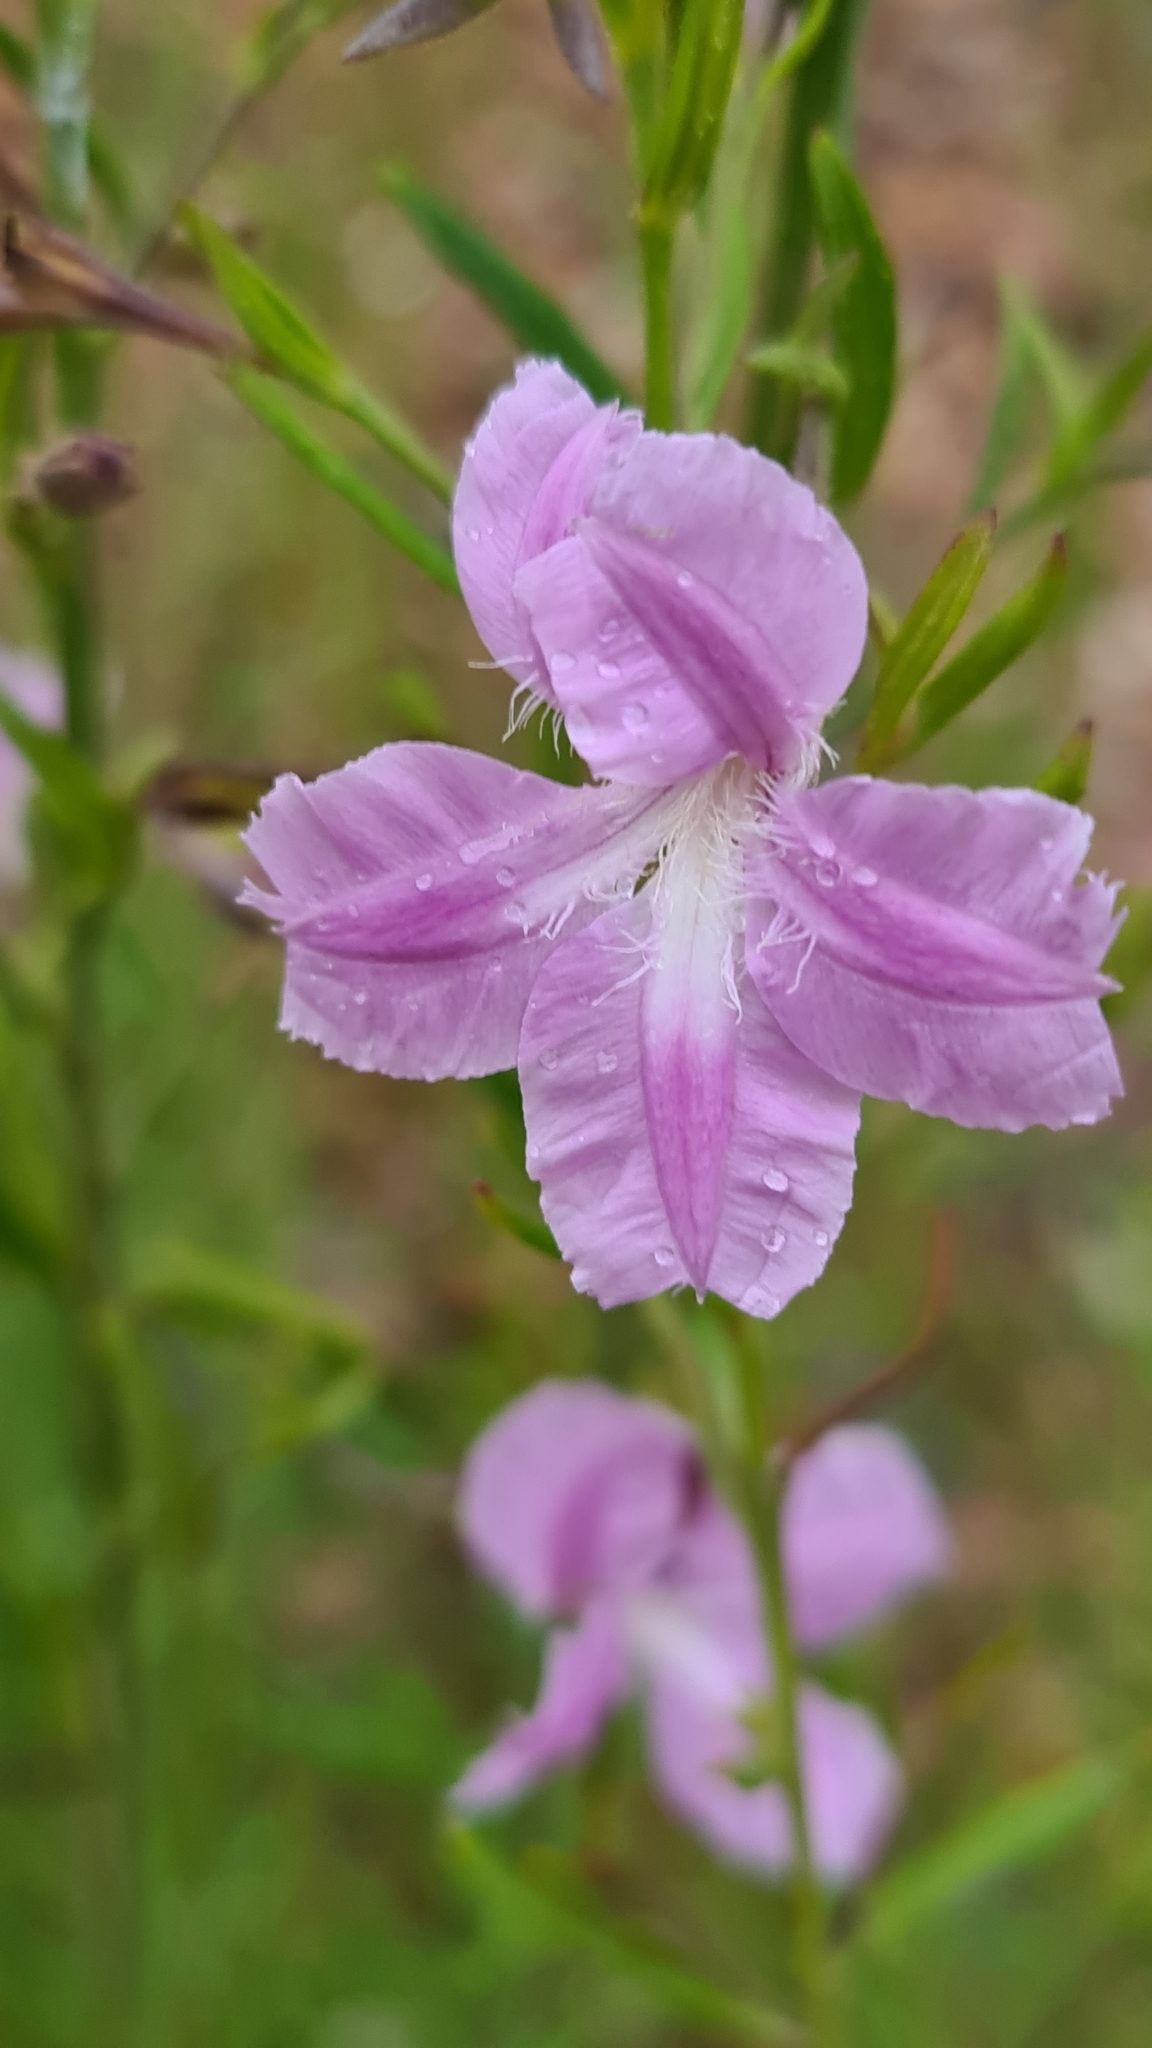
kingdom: Plantae
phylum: Tracheophyta
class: Magnoliopsida
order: Asterales
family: Goodeniaceae
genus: Goodenia
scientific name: Goodenia barbata
